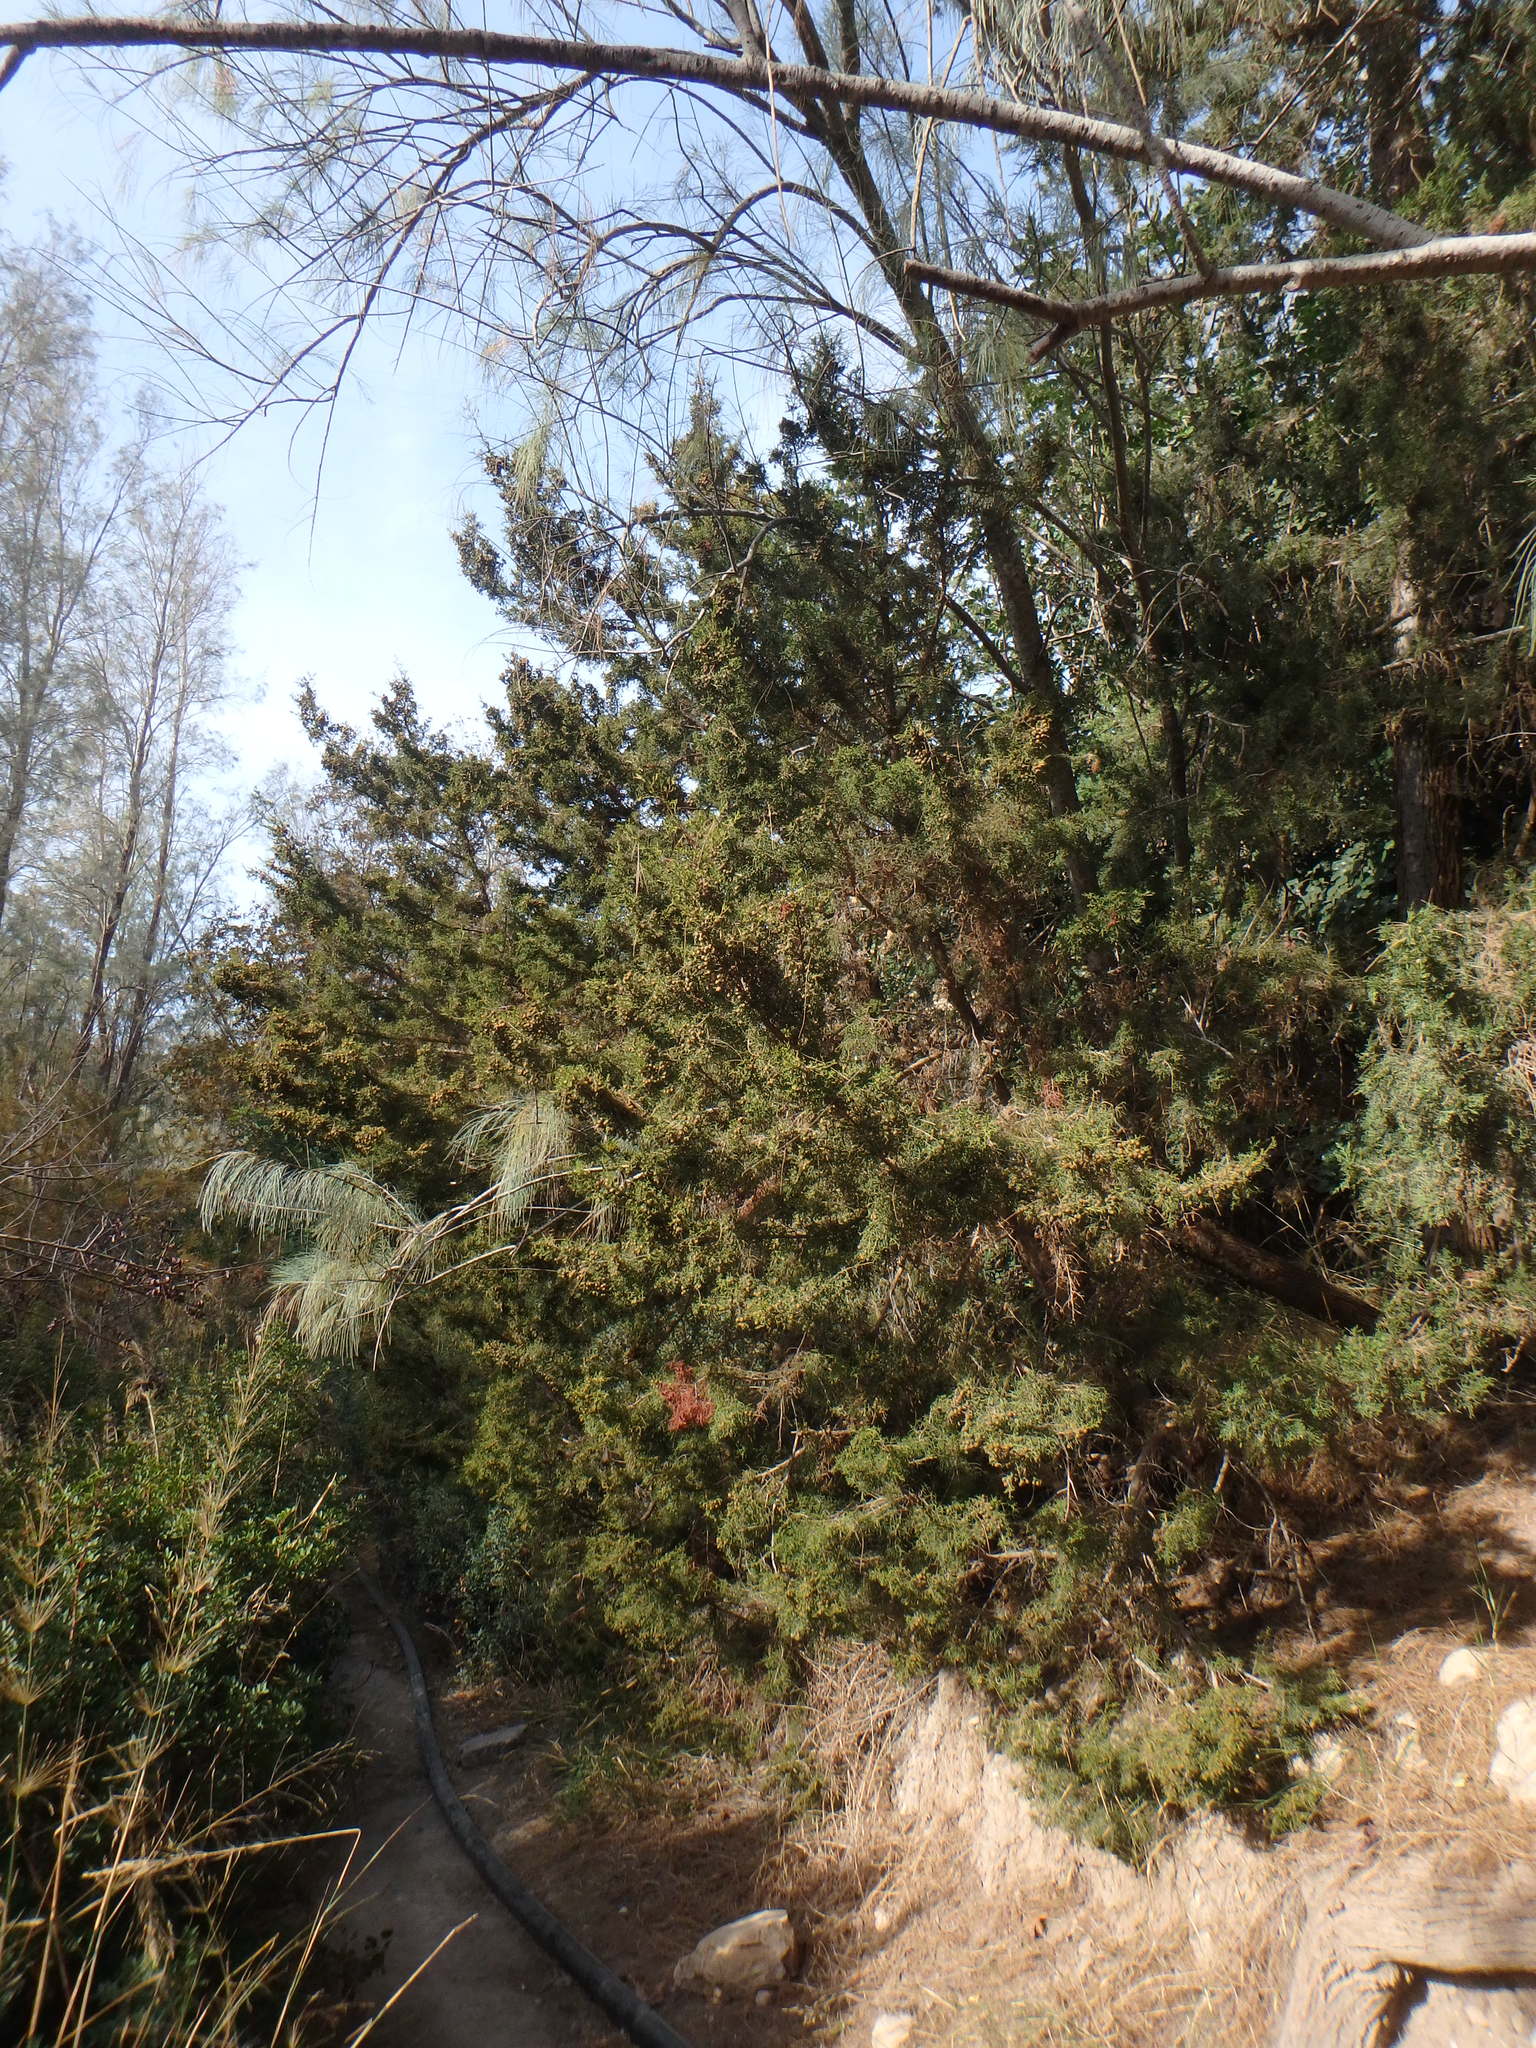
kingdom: Plantae
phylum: Tracheophyta
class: Pinopsida
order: Pinales
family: Cupressaceae
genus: Juniperus
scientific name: Juniperus phoenicea
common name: Phoenician juniper
